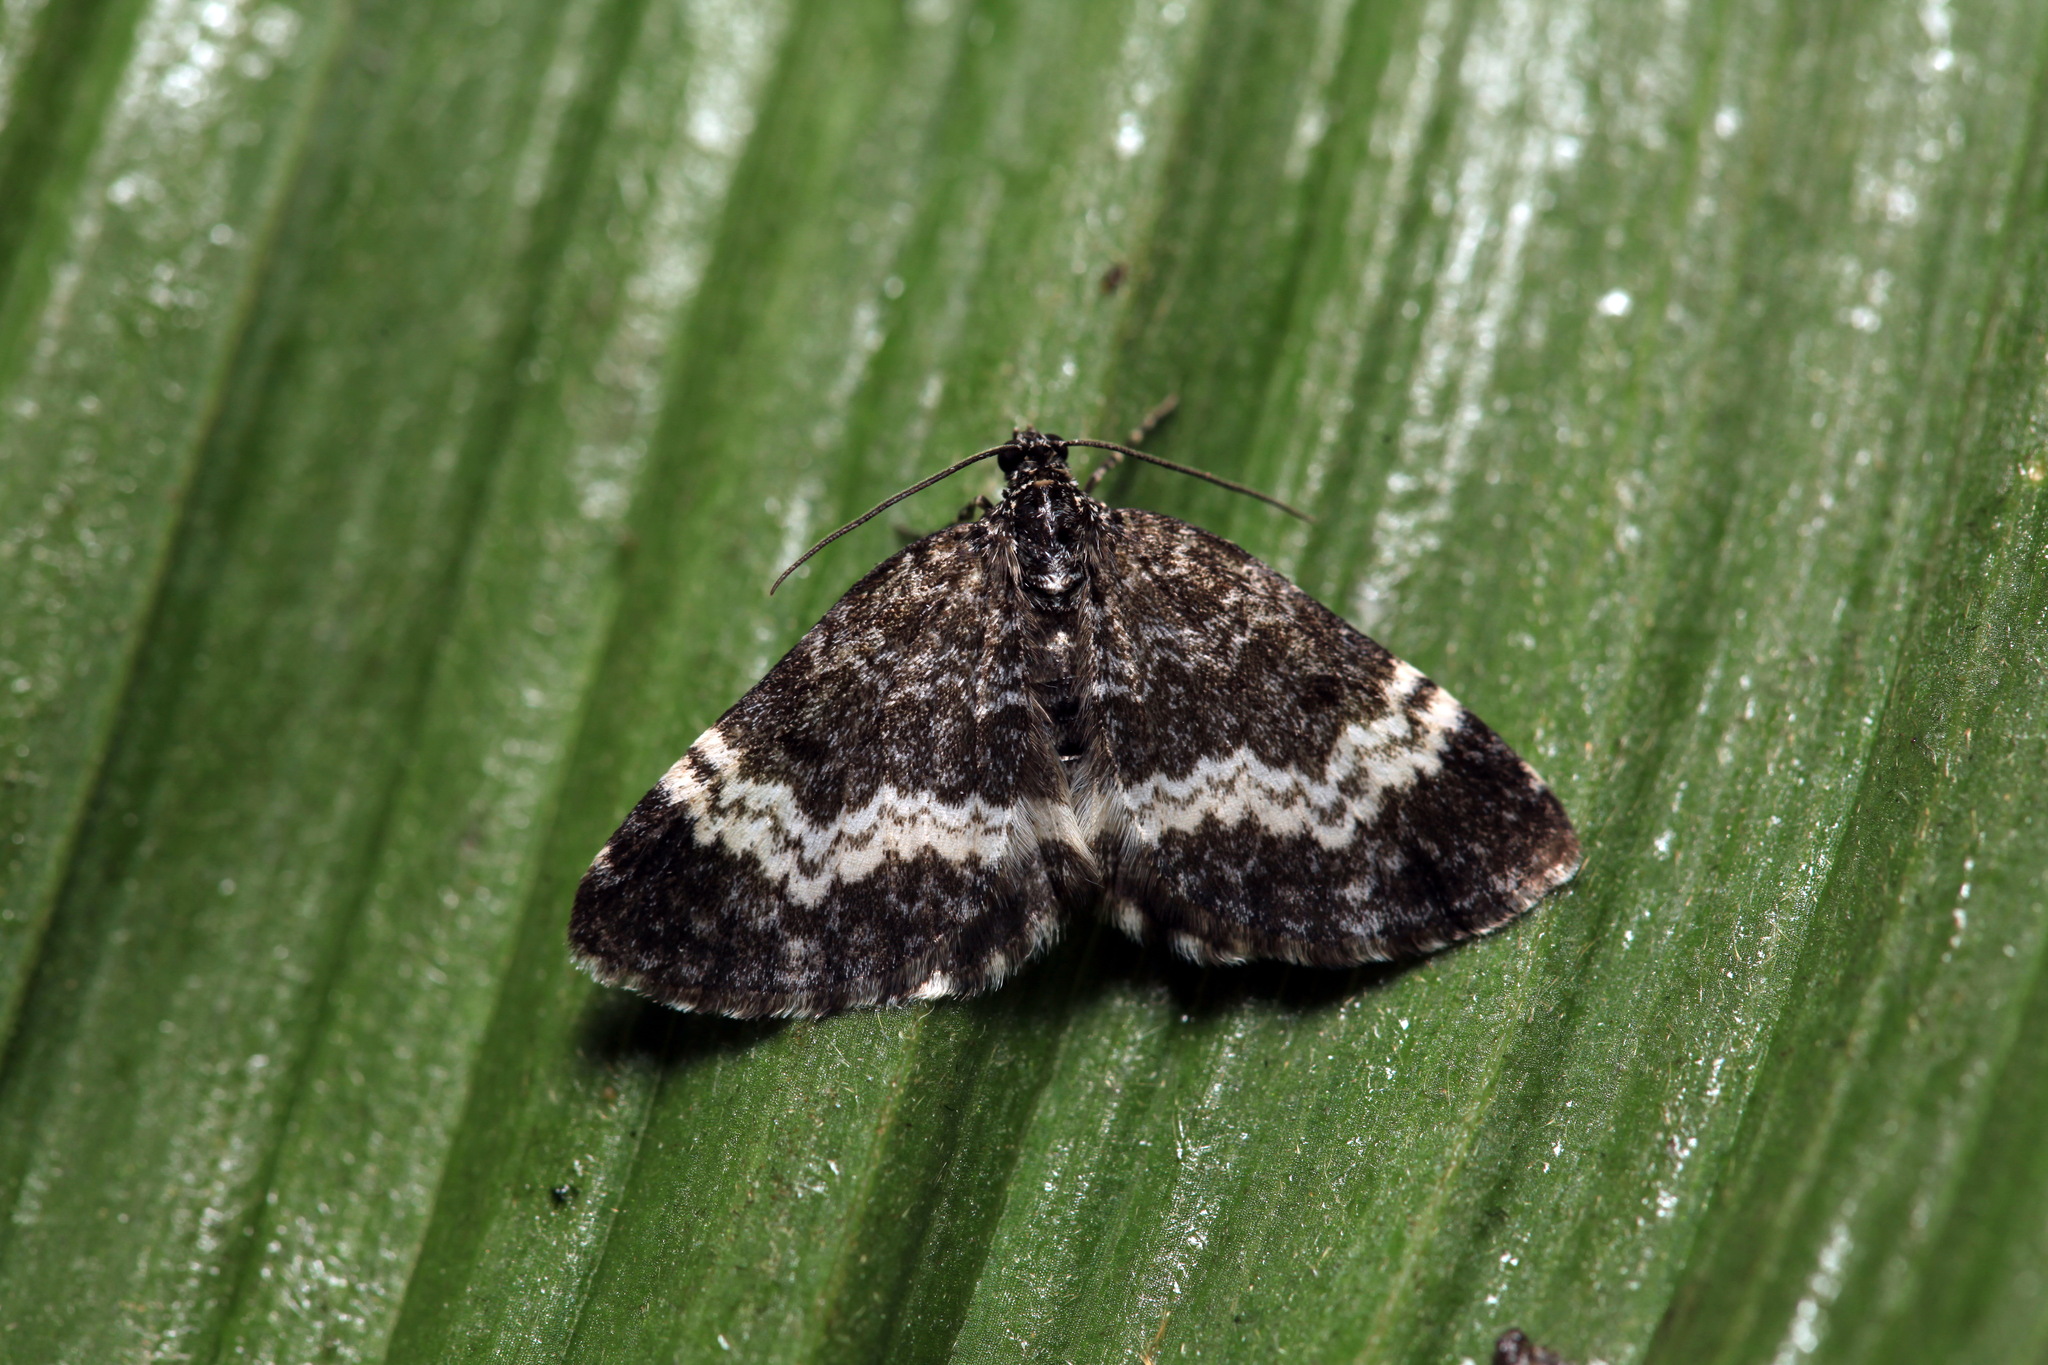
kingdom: Animalia
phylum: Arthropoda
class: Insecta
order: Lepidoptera
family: Geometridae
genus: Spargania
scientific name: Spargania luctuata
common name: White-banded carpet
